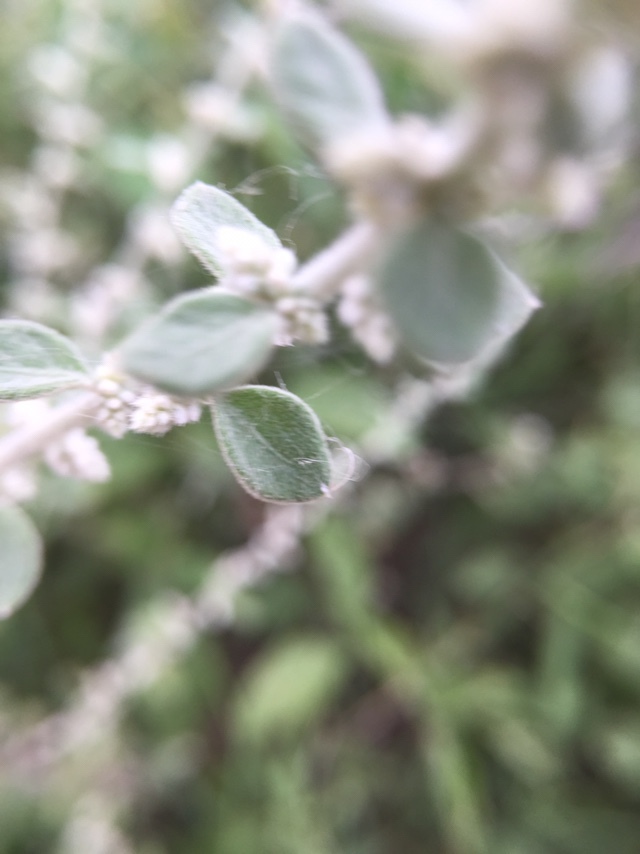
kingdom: Plantae
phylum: Tracheophyta
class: Magnoliopsida
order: Caryophyllales
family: Amaranthaceae
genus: Ouret
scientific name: Ouret lanata
